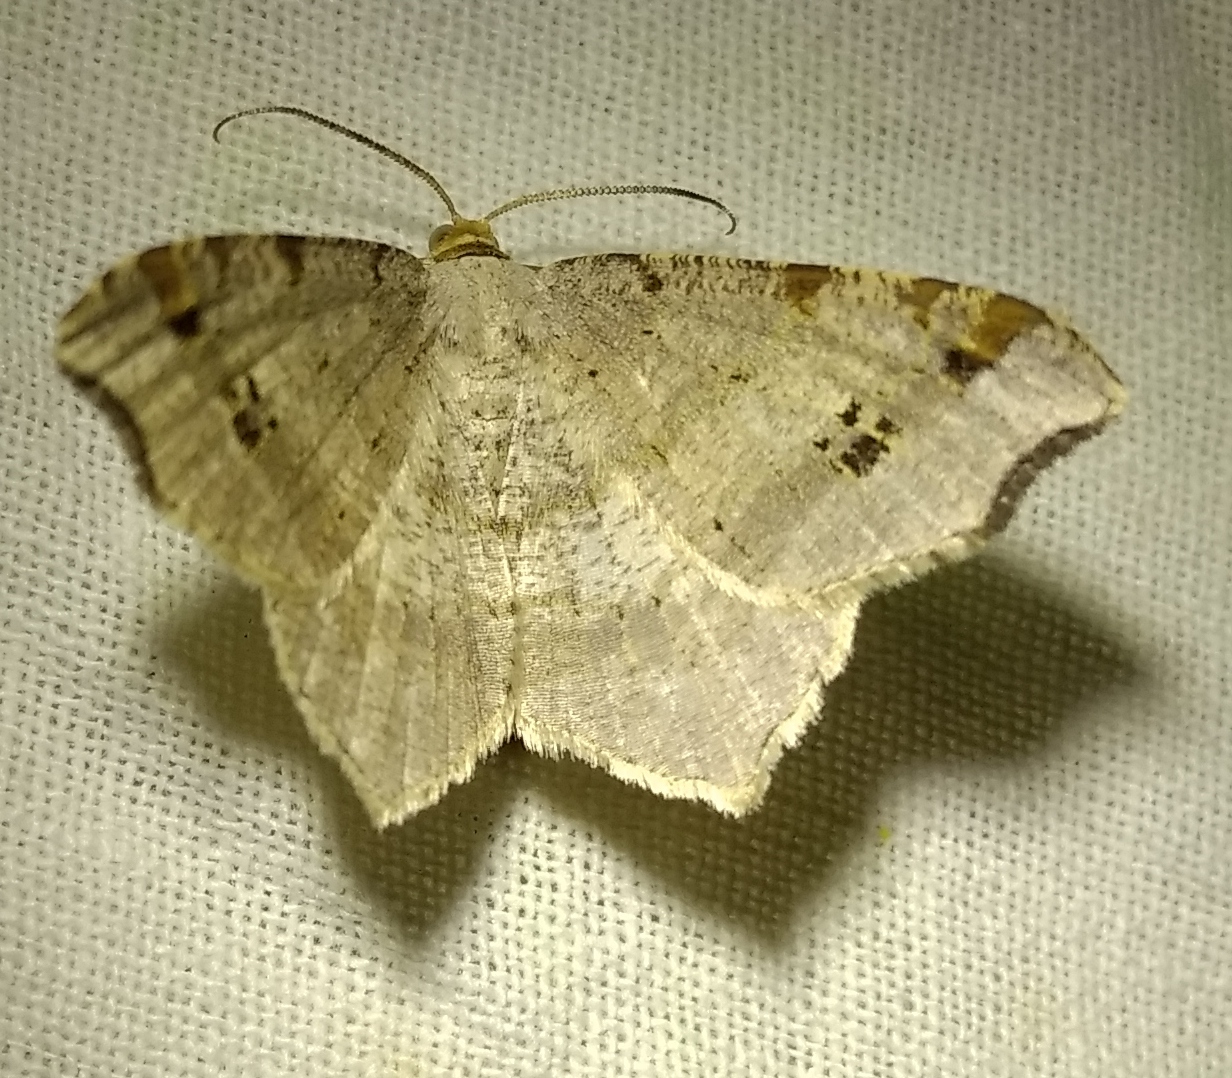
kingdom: Animalia
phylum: Arthropoda
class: Insecta
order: Lepidoptera
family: Geometridae
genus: Macaria
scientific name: Macaria alternata
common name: Sharp-angled peacock
